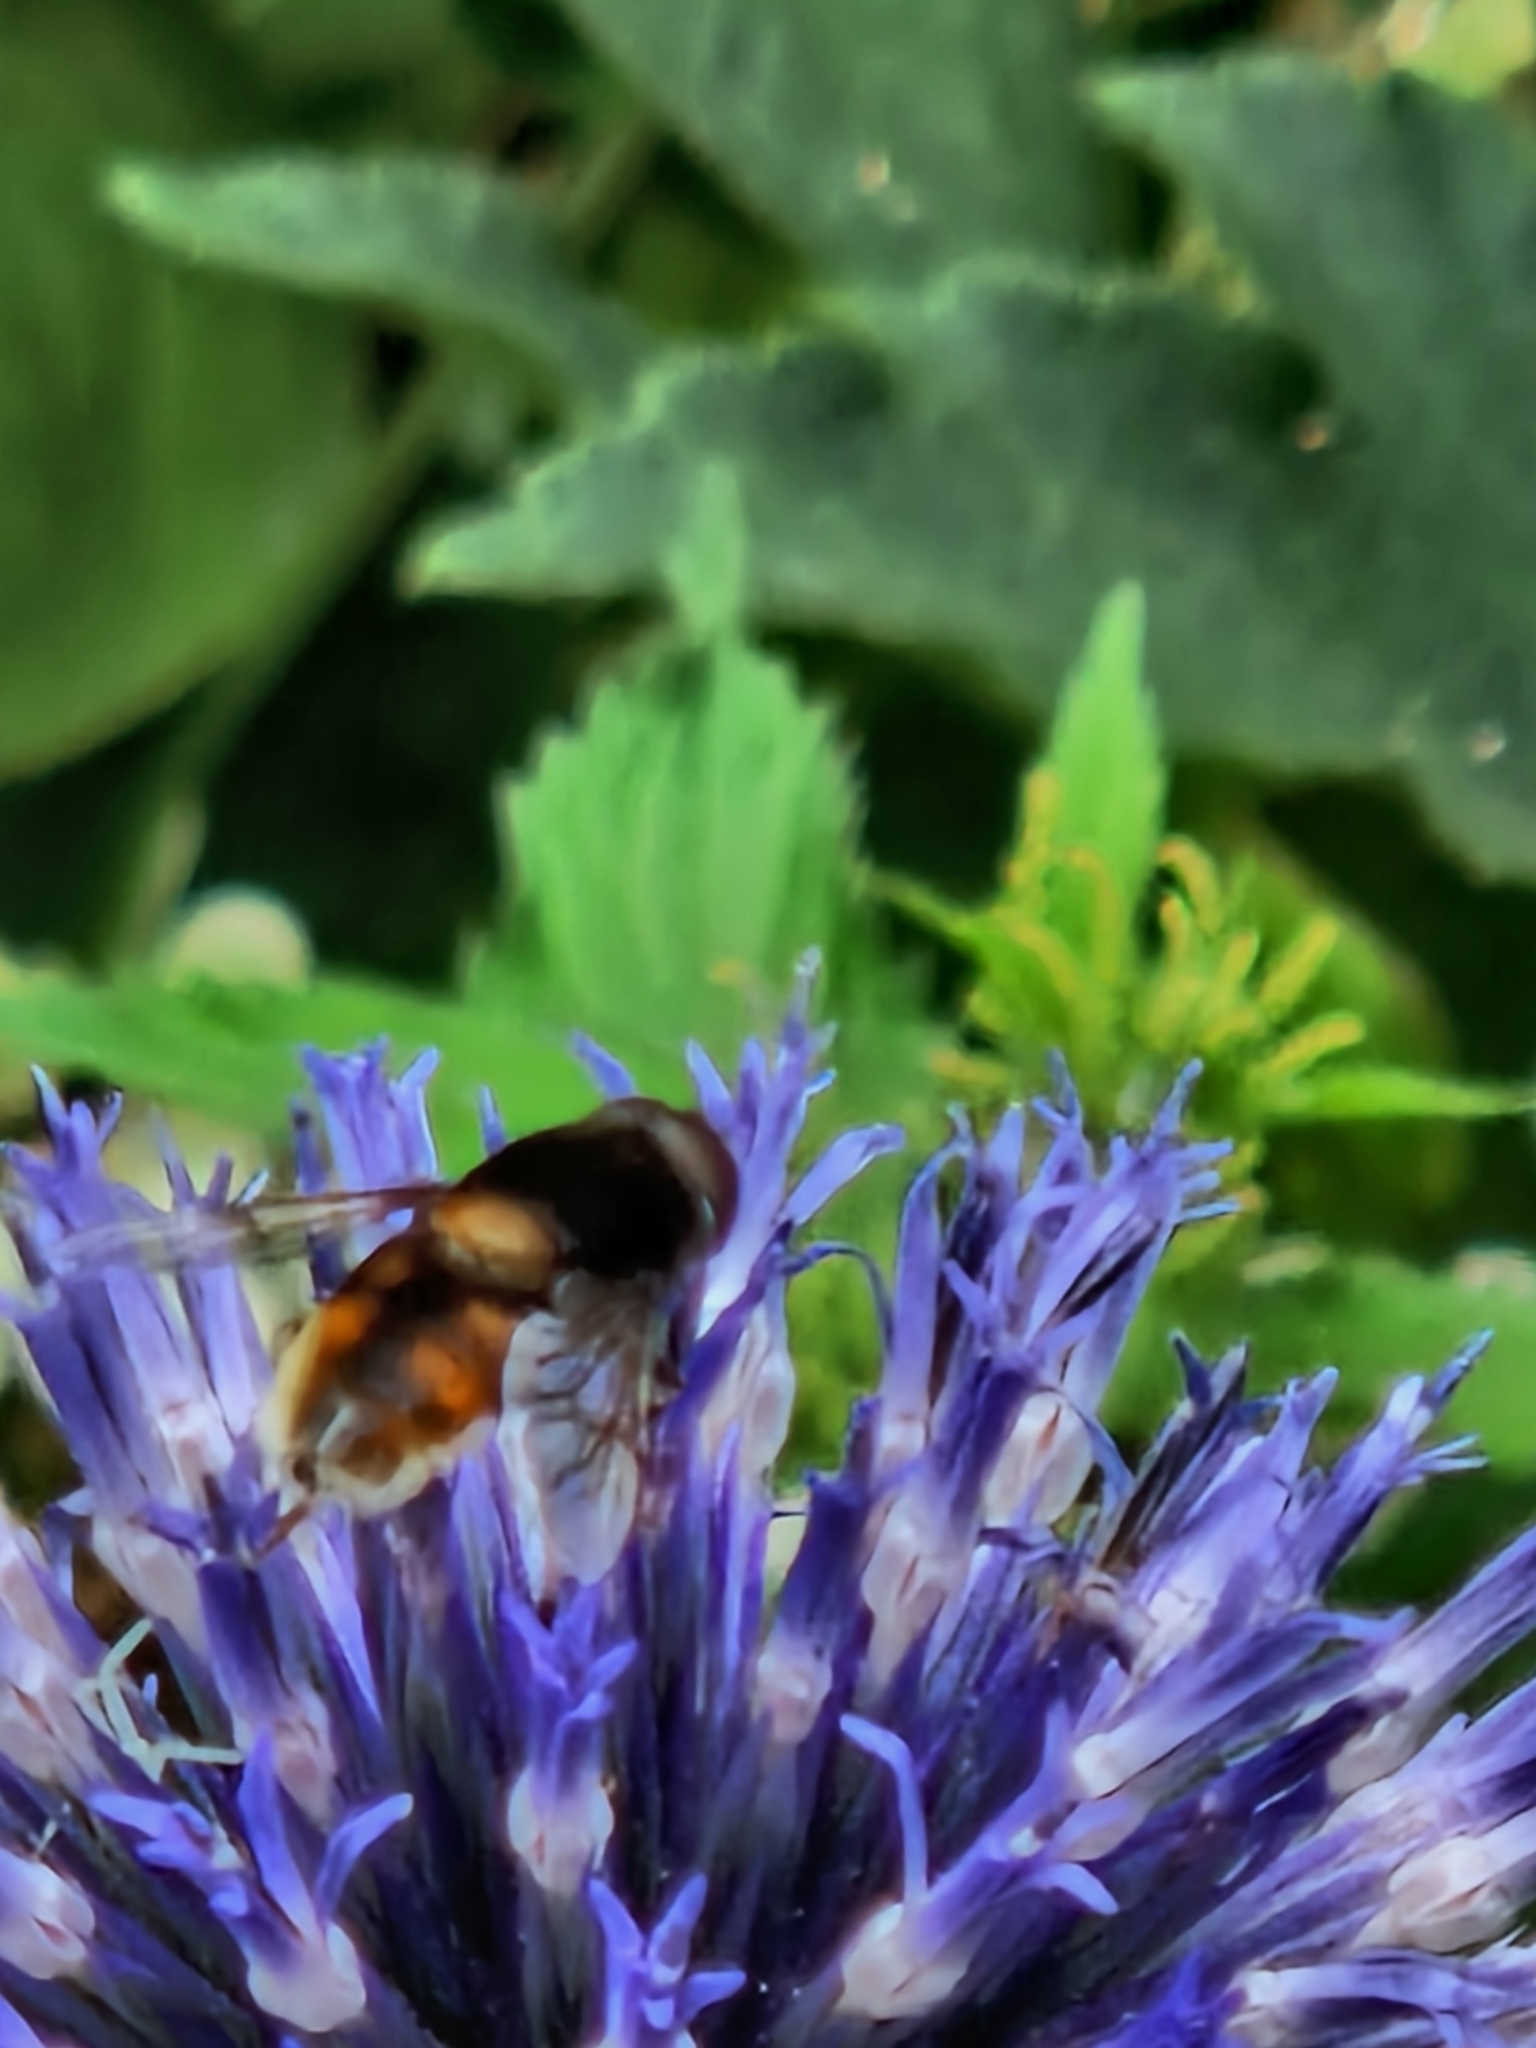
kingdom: Animalia
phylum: Arthropoda
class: Insecta
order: Diptera
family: Syrphidae
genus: Eristalis
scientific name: Eristalis intricaria
